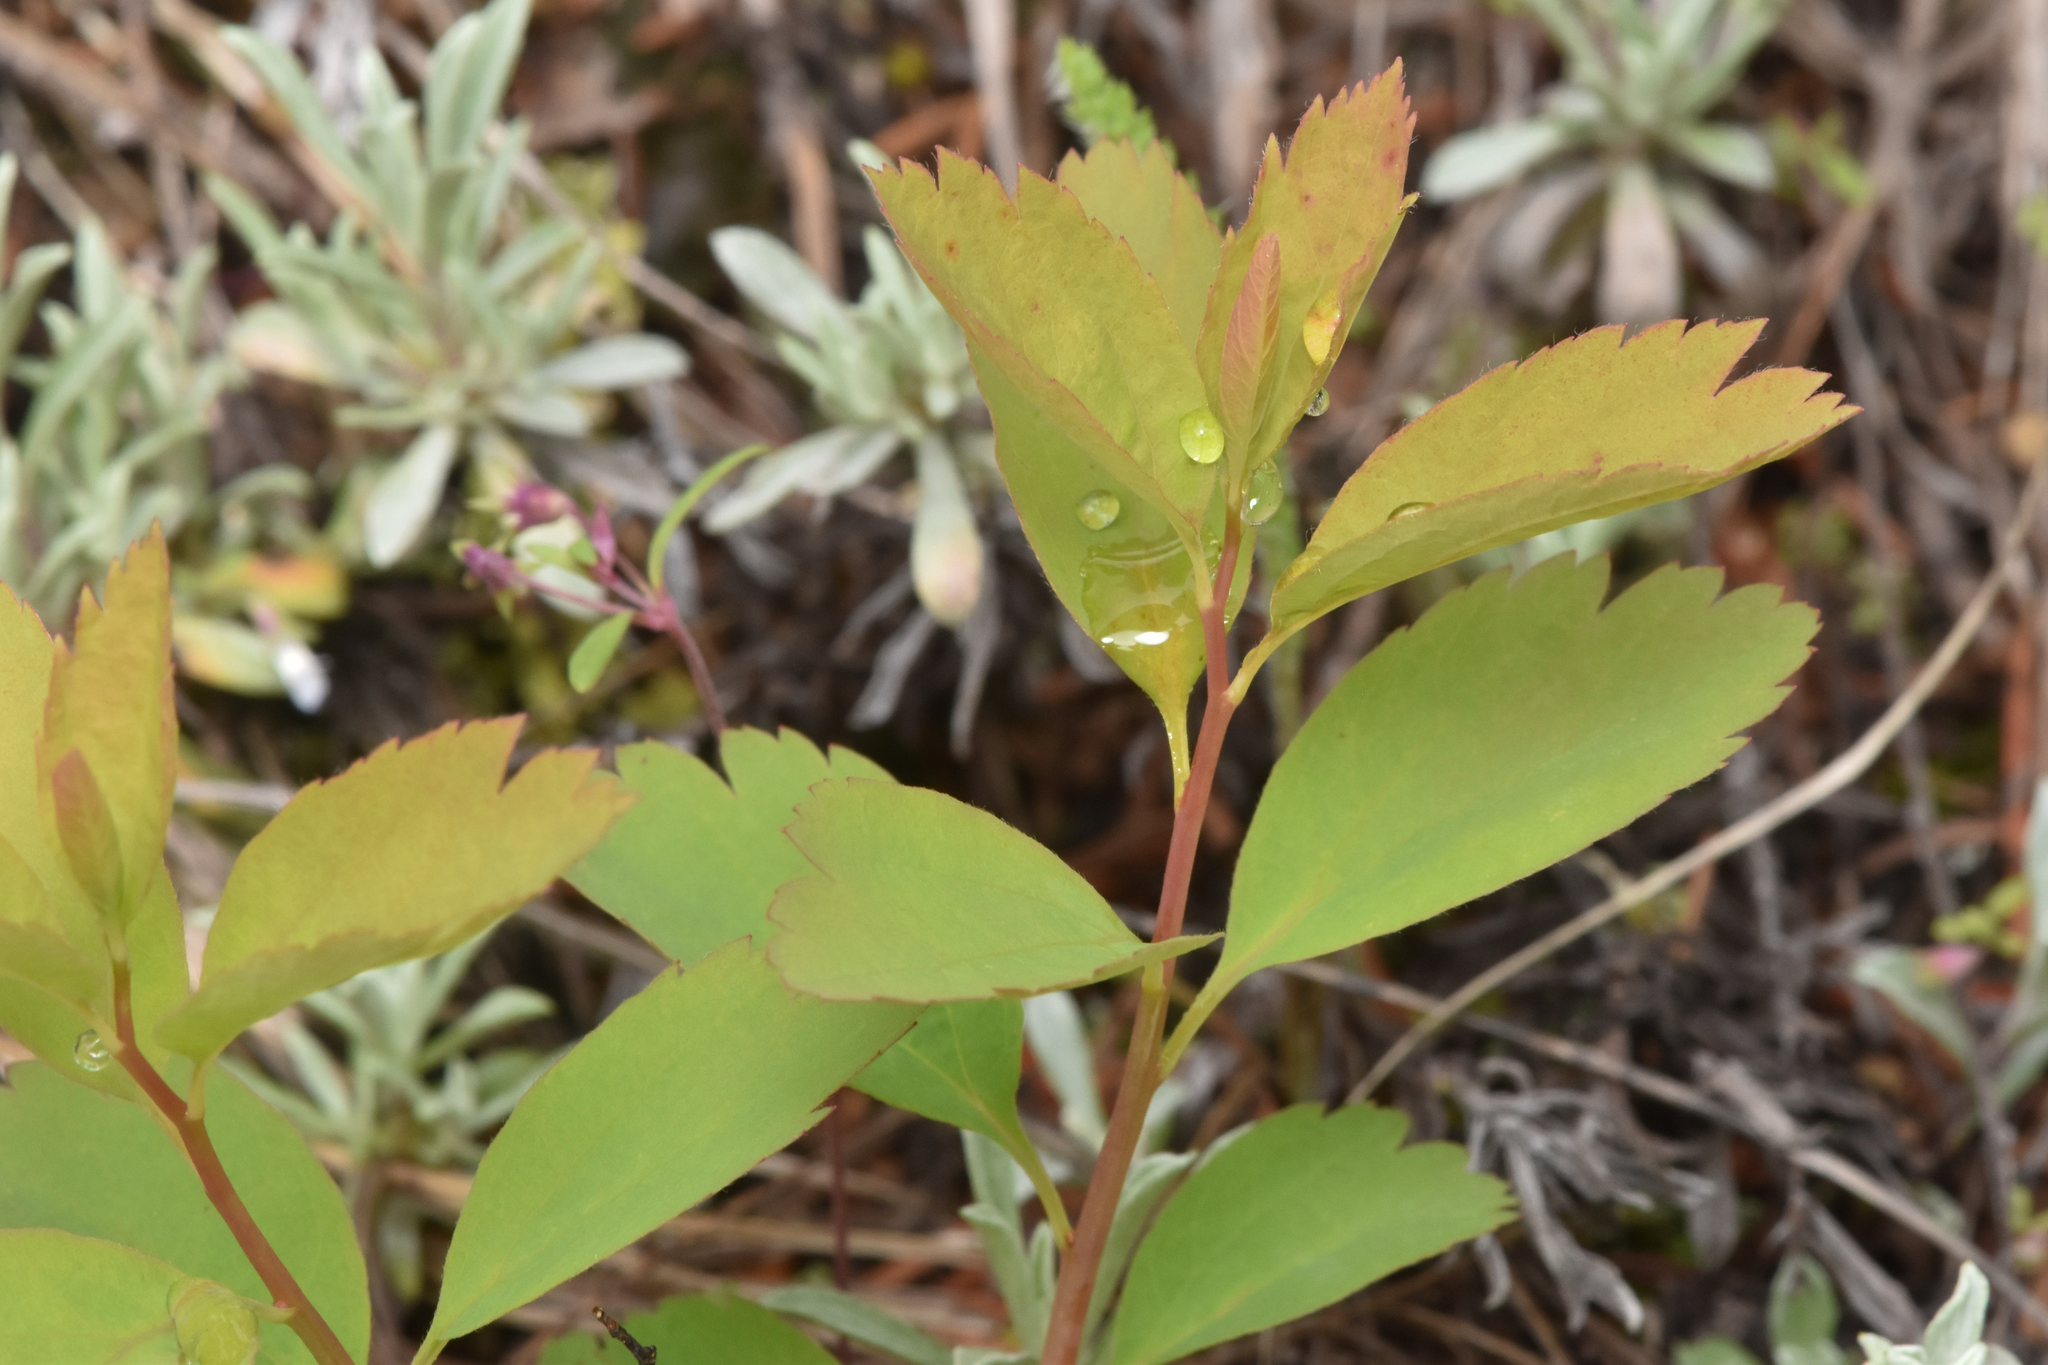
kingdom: Plantae
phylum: Tracheophyta
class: Magnoliopsida
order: Rosales
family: Rosaceae
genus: Spiraea
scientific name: Spiraea lucida
